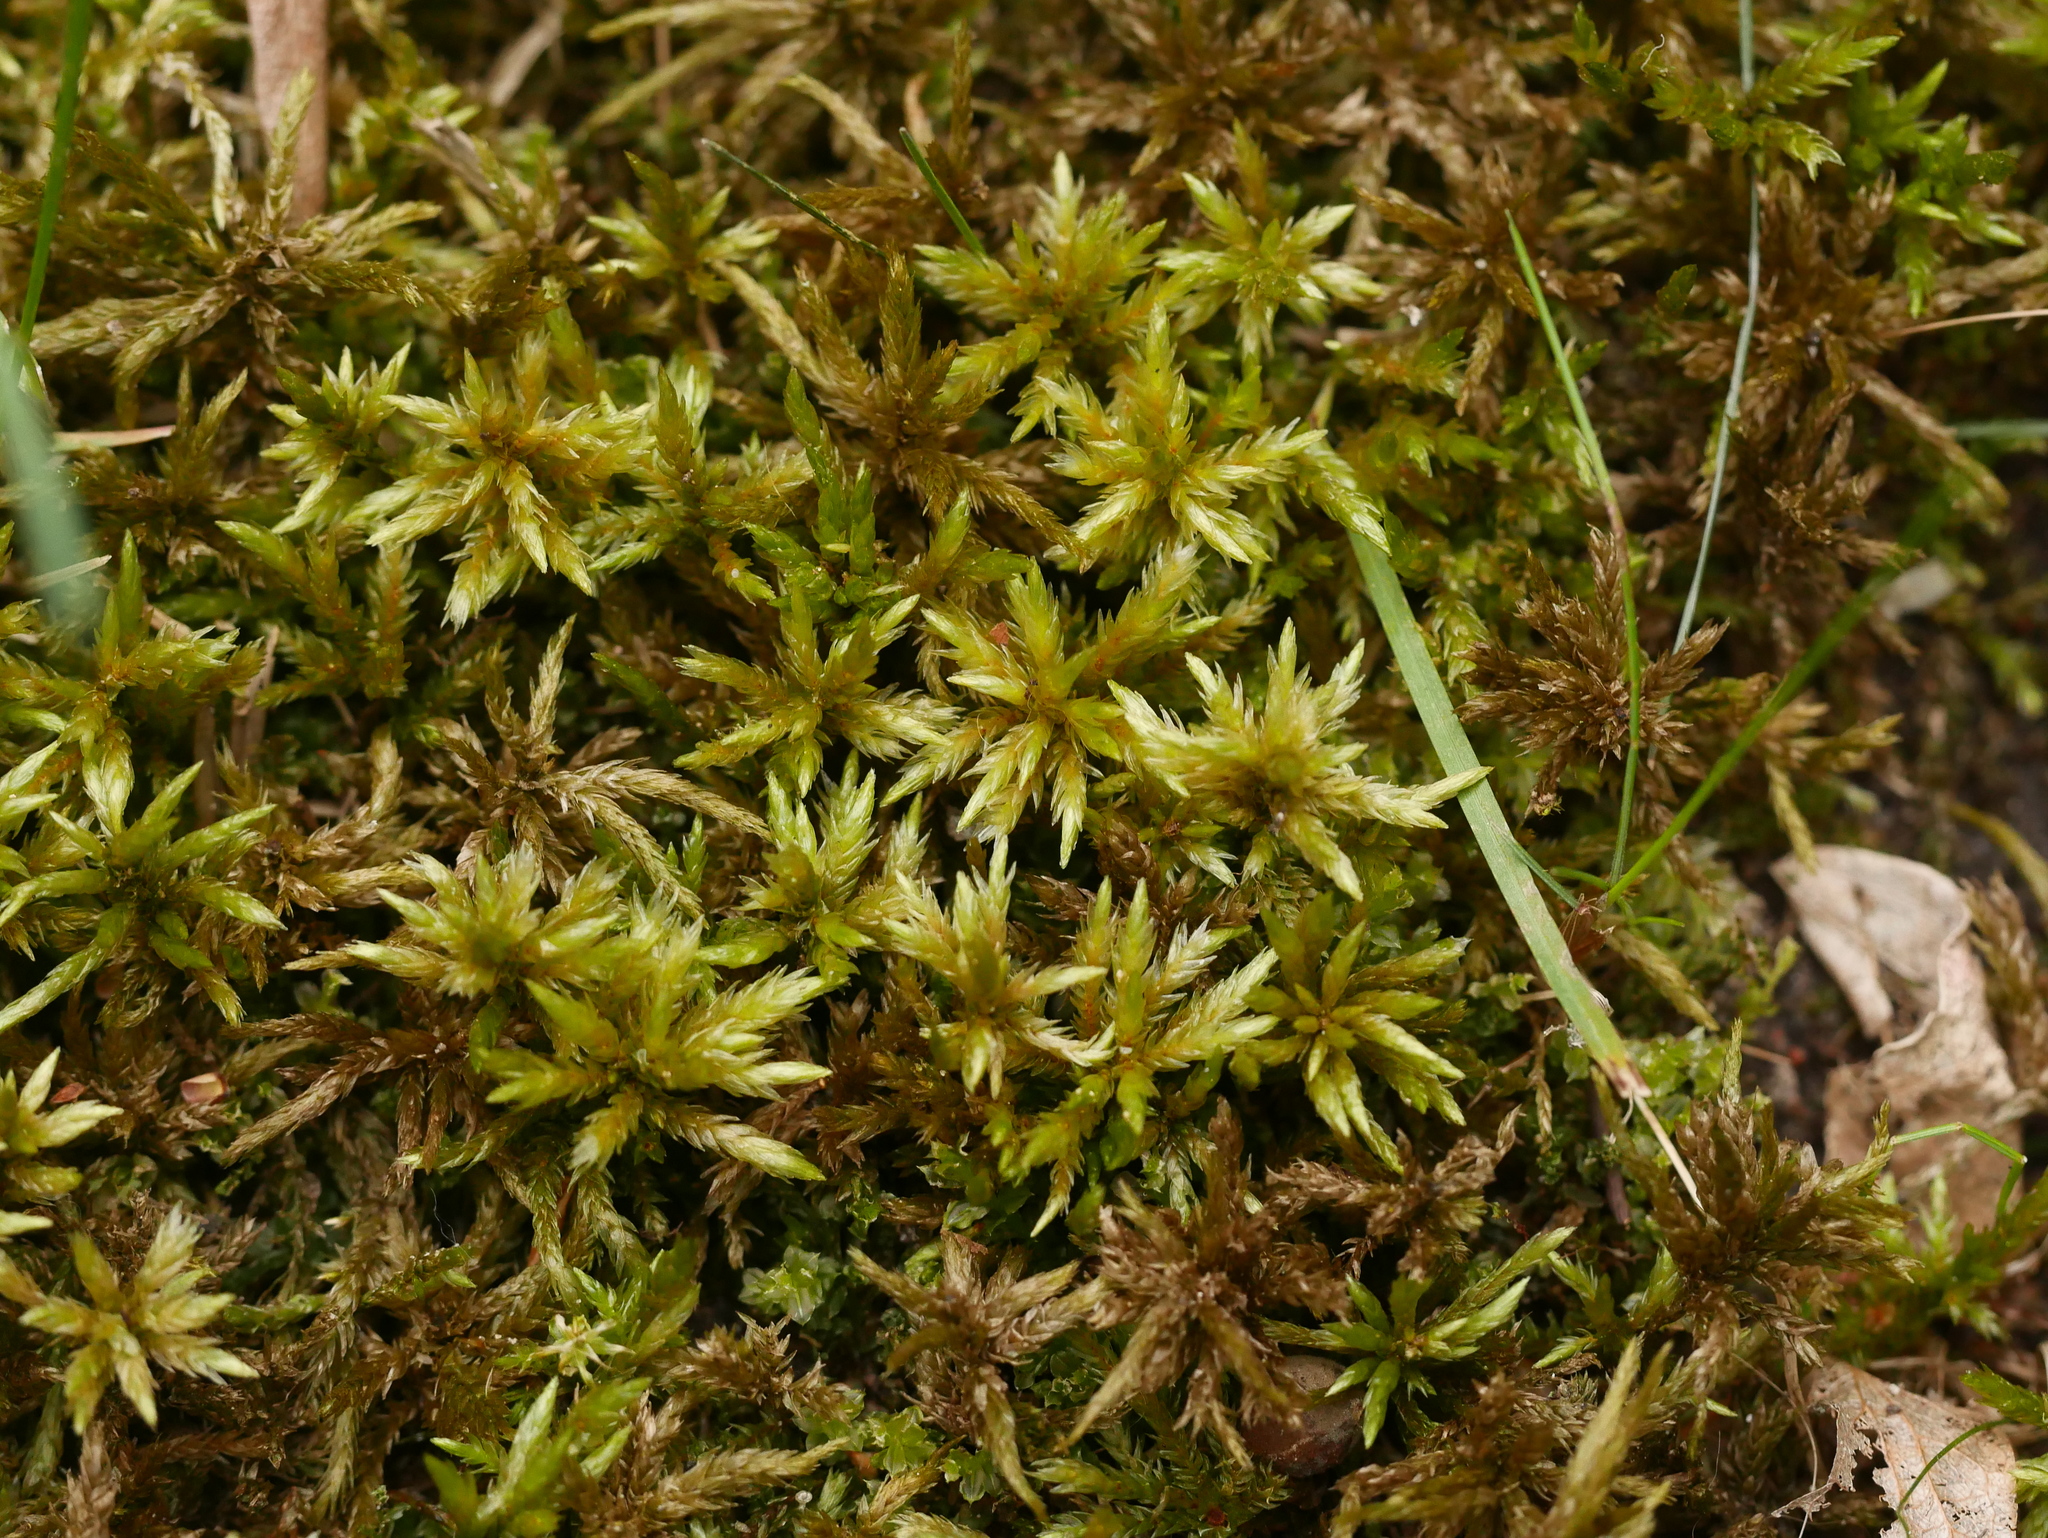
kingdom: Plantae
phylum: Bryophyta
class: Bryopsida
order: Hypnales
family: Climaciaceae
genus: Climacium
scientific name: Climacium dendroides
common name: Northern tree moss
